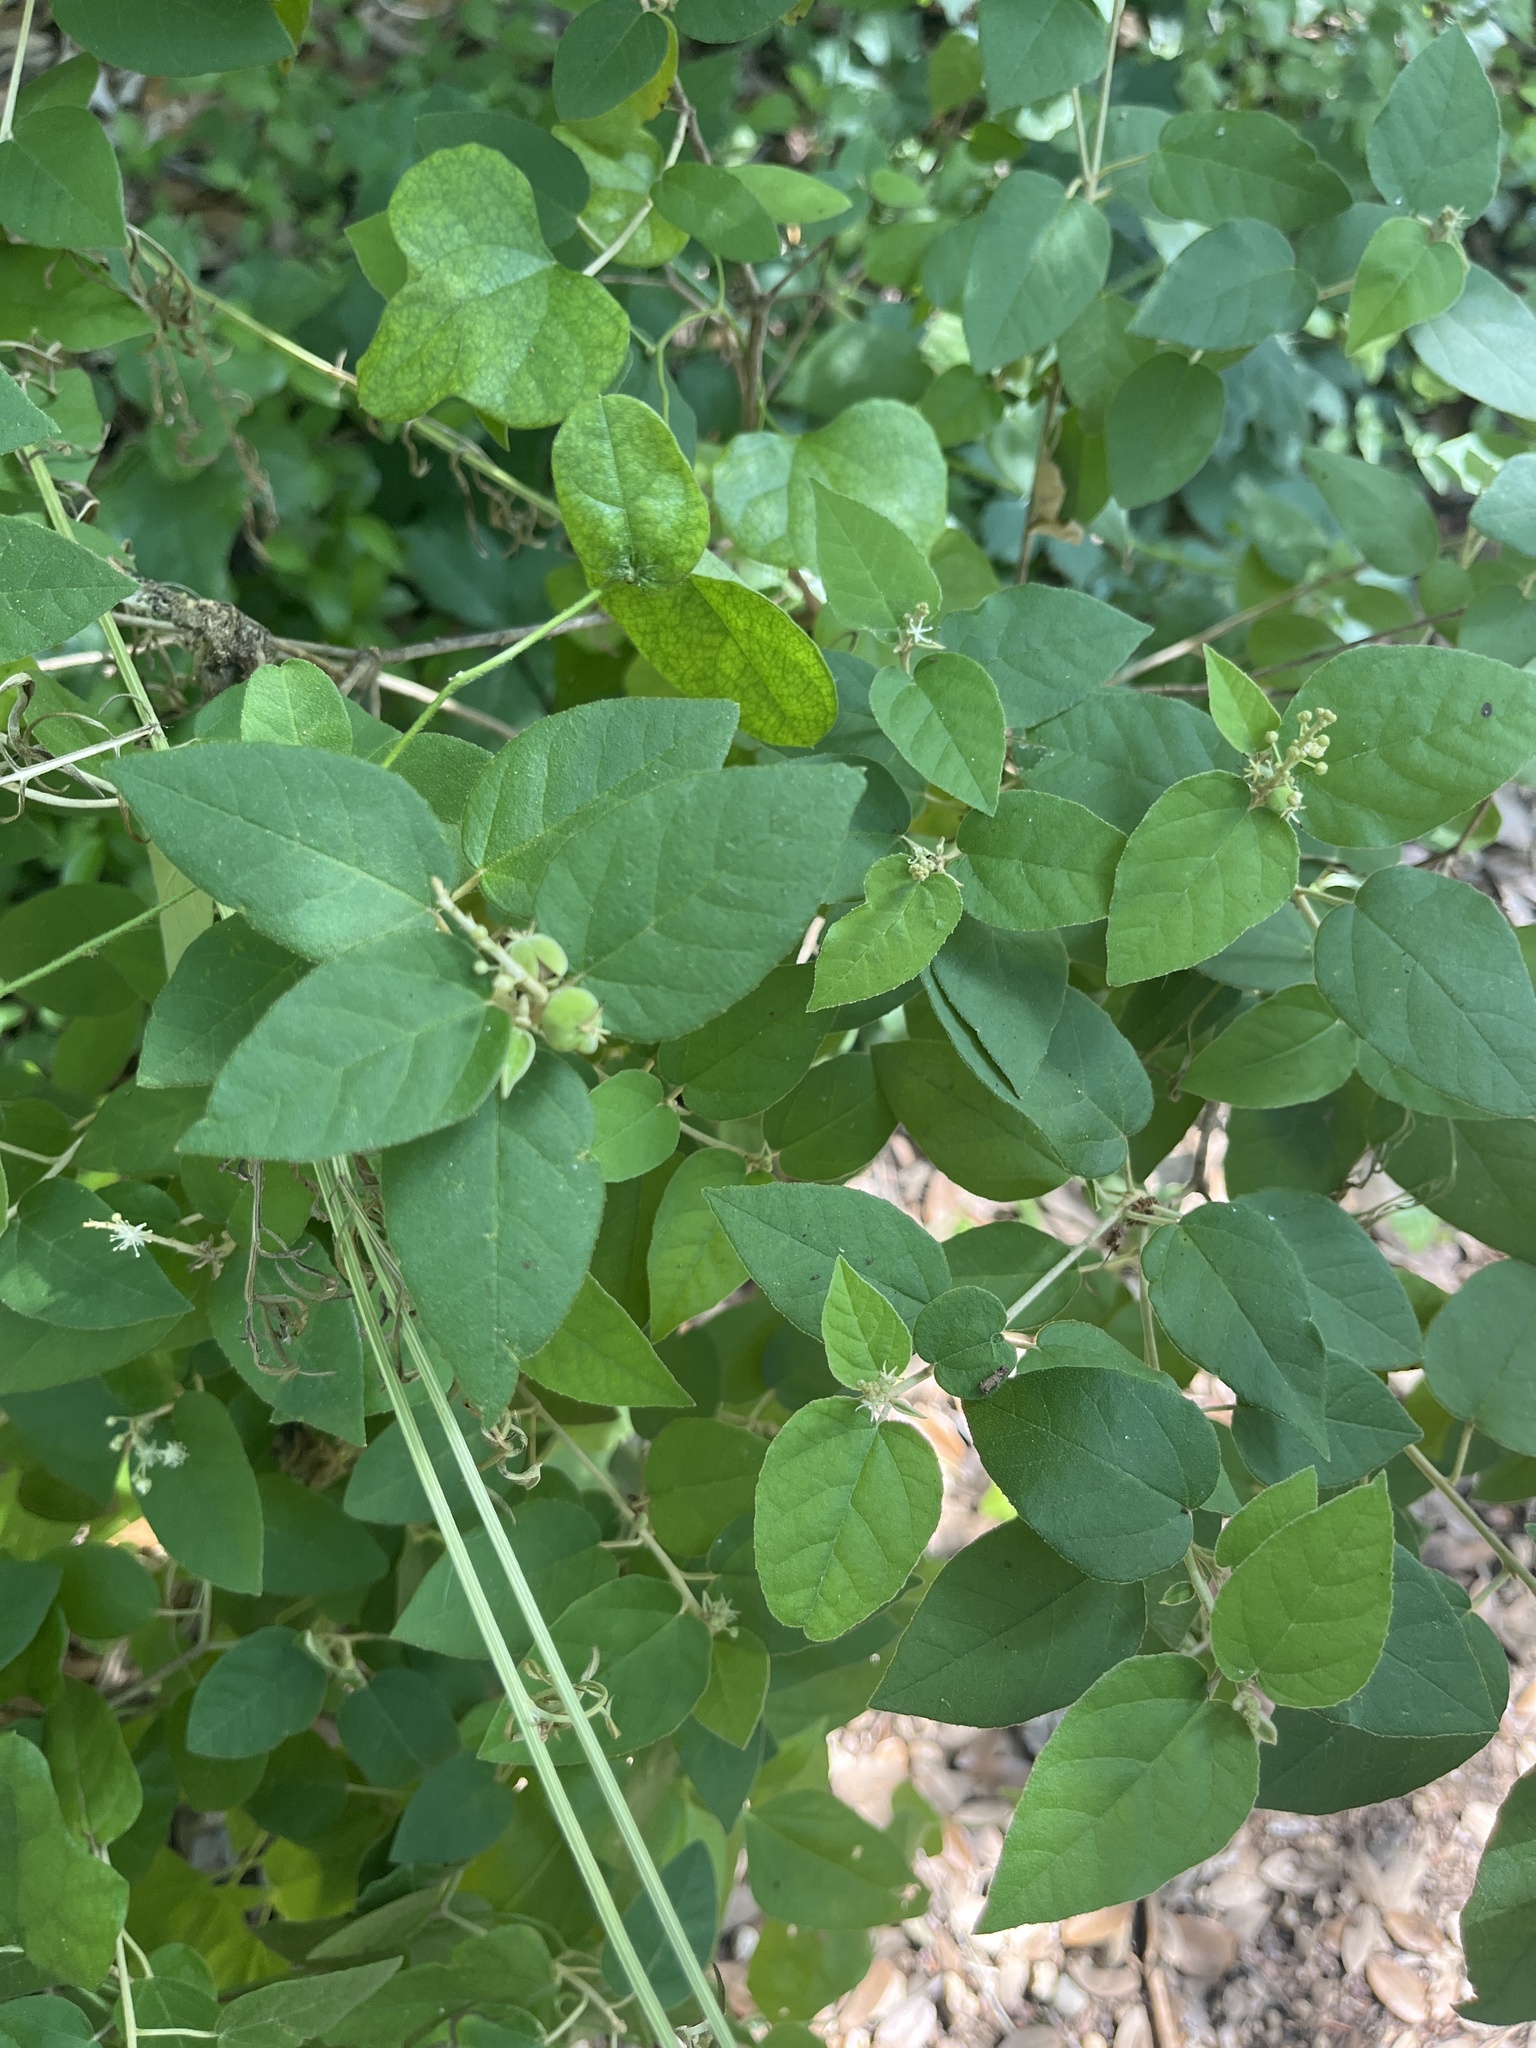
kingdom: Plantae
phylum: Tracheophyta
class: Magnoliopsida
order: Malpighiales
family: Euphorbiaceae
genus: Croton
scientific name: Croton fruticulosus
